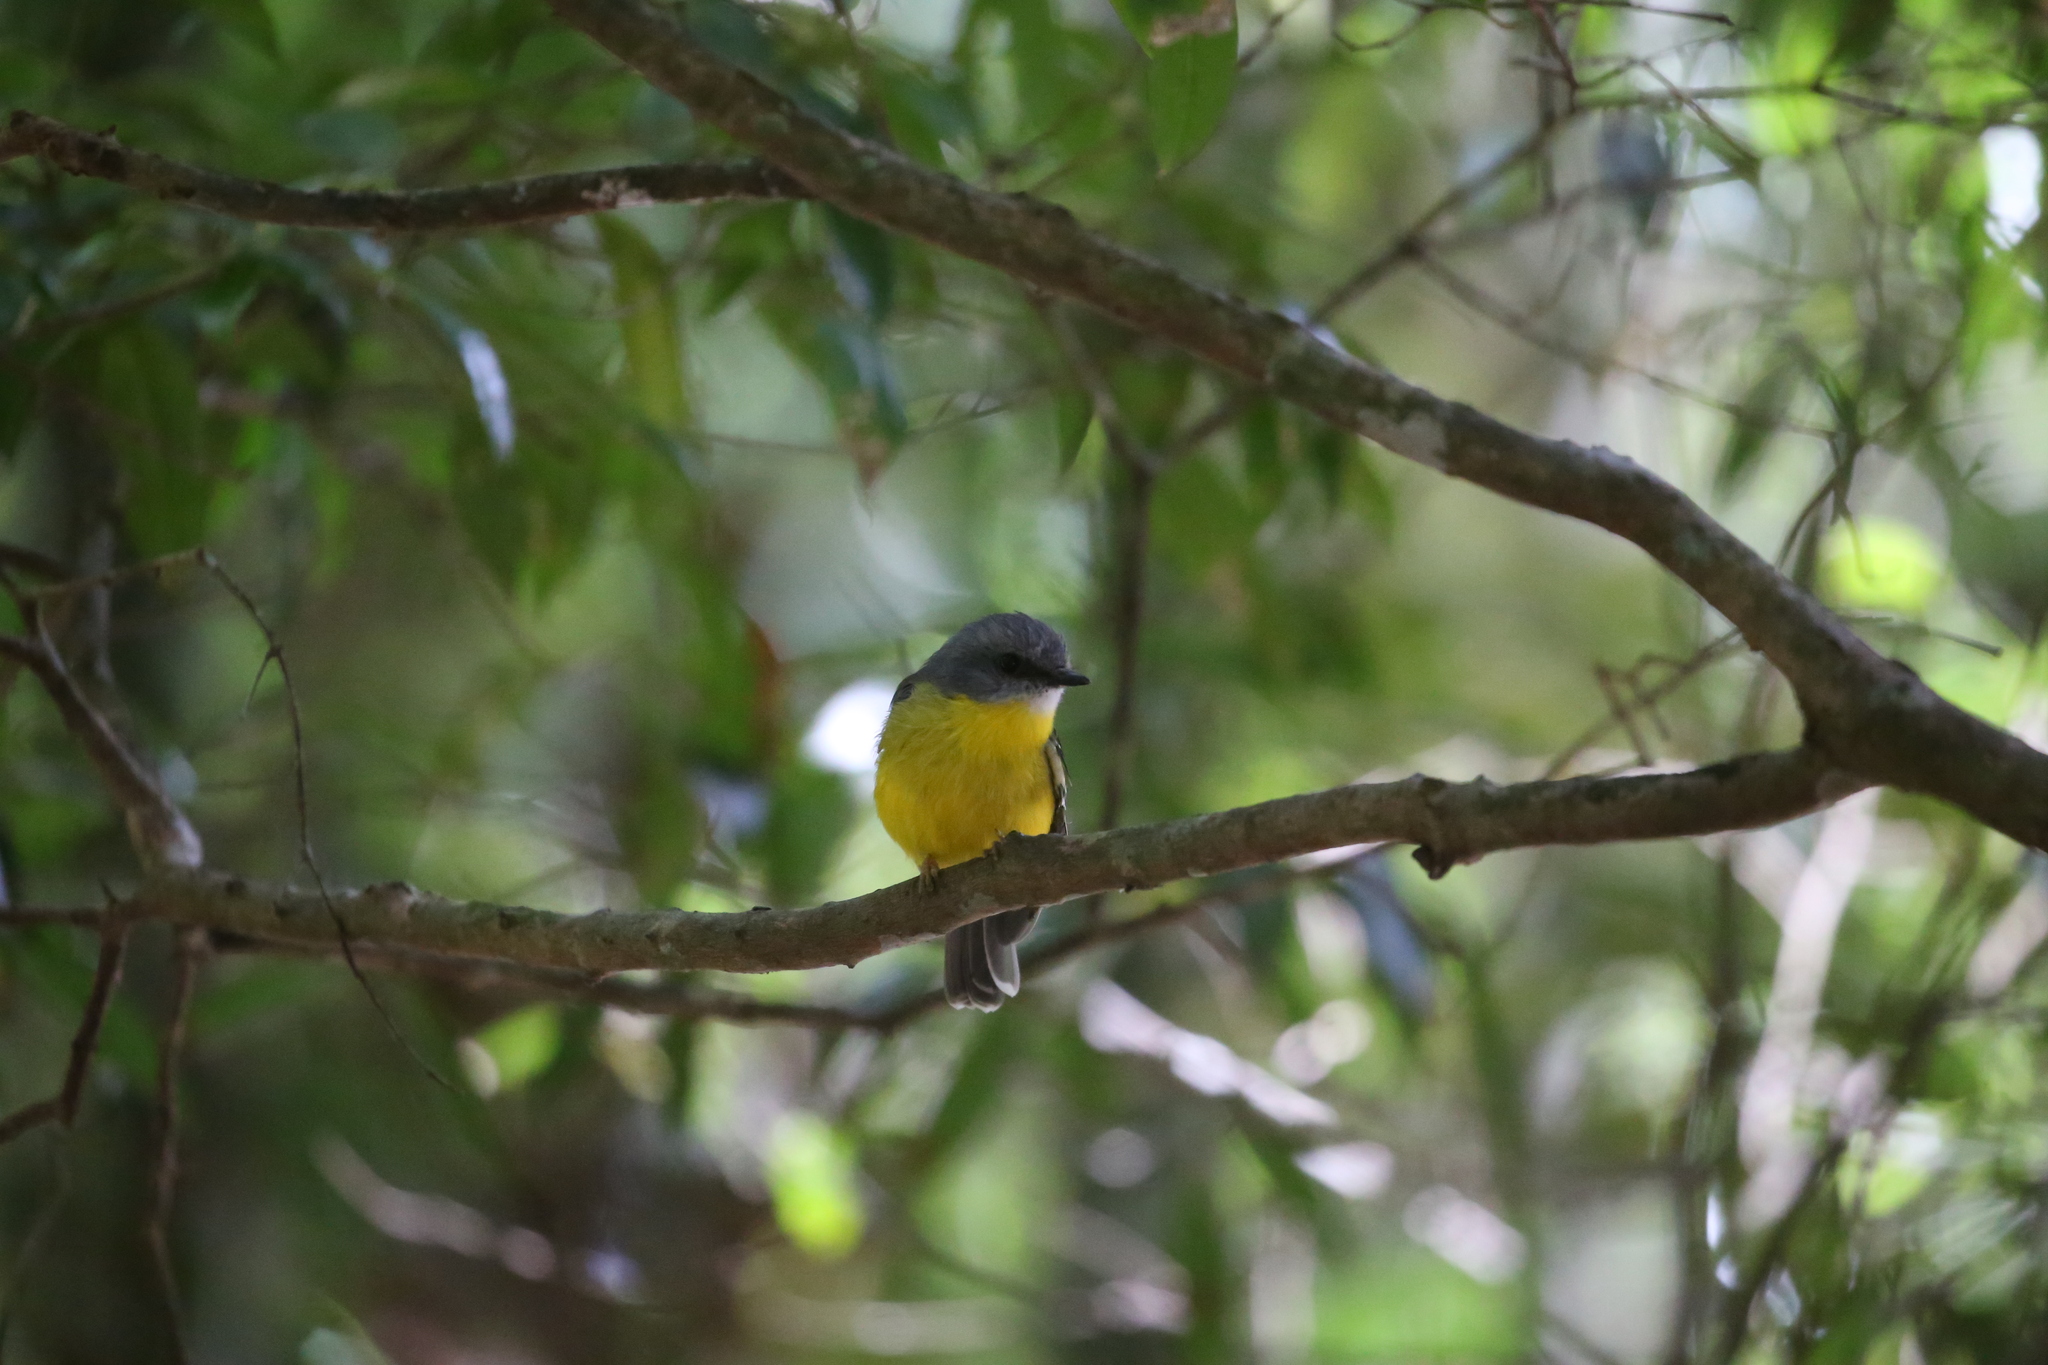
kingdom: Animalia
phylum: Chordata
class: Aves
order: Passeriformes
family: Petroicidae
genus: Eopsaltria
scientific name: Eopsaltria australis
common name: Eastern yellow robin
